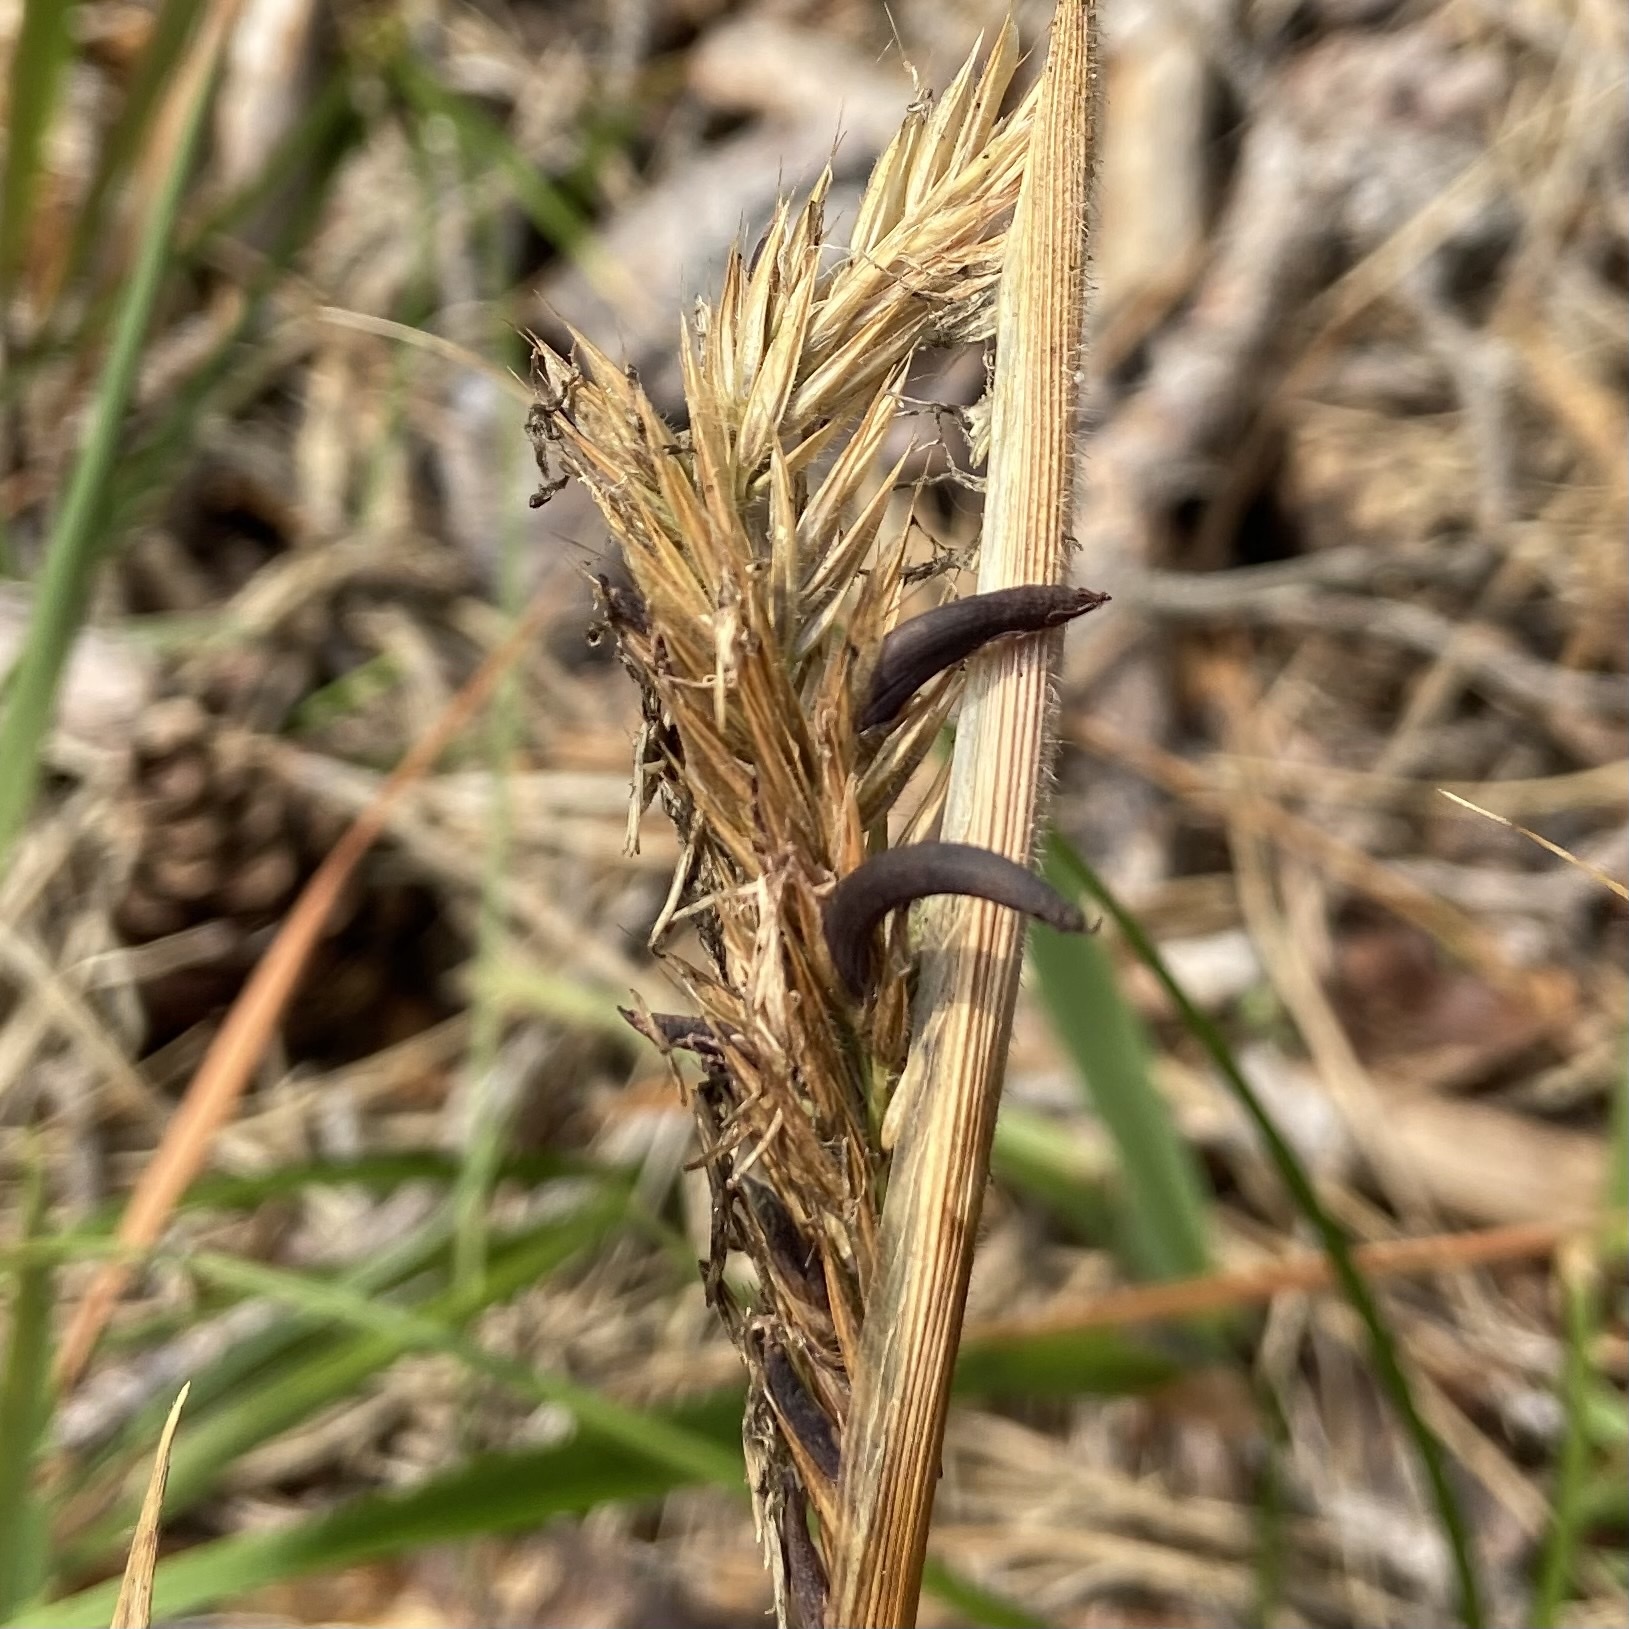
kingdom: Fungi
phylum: Ascomycota
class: Sordariomycetes
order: Hypocreales
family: Clavicipitaceae
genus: Claviceps
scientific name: Claviceps purpurea
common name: Rye ergot
